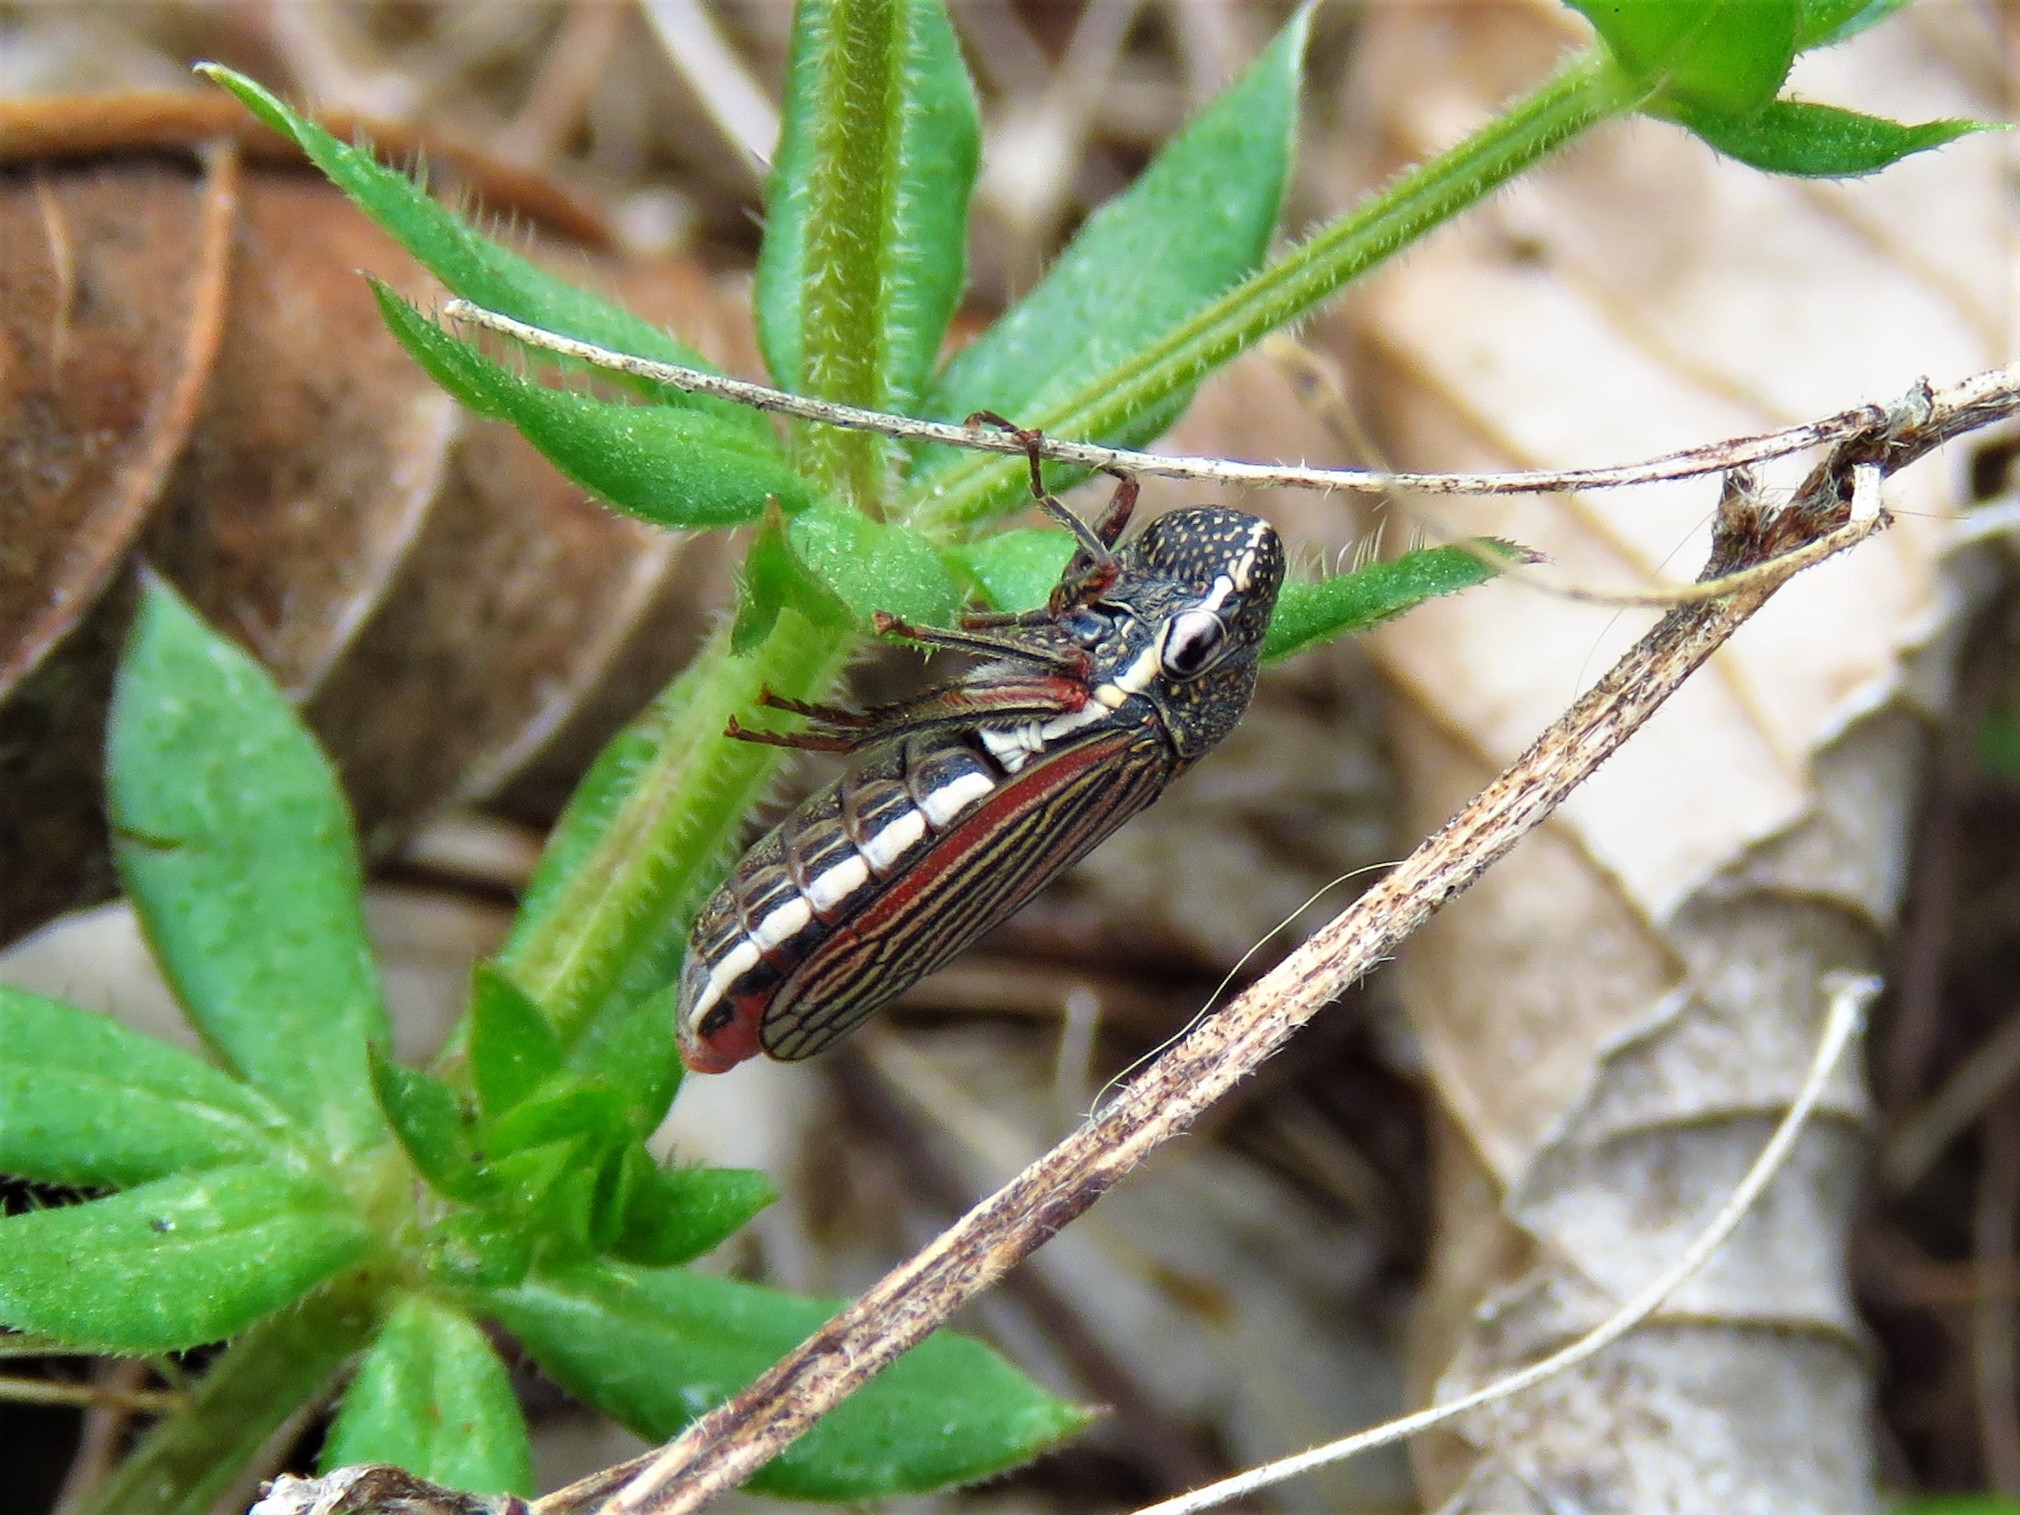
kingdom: Animalia
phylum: Arthropoda
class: Insecta
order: Hemiptera
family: Cicadellidae
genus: Cuerna
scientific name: Cuerna costalis
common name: Lateral-lined sharpshooter
